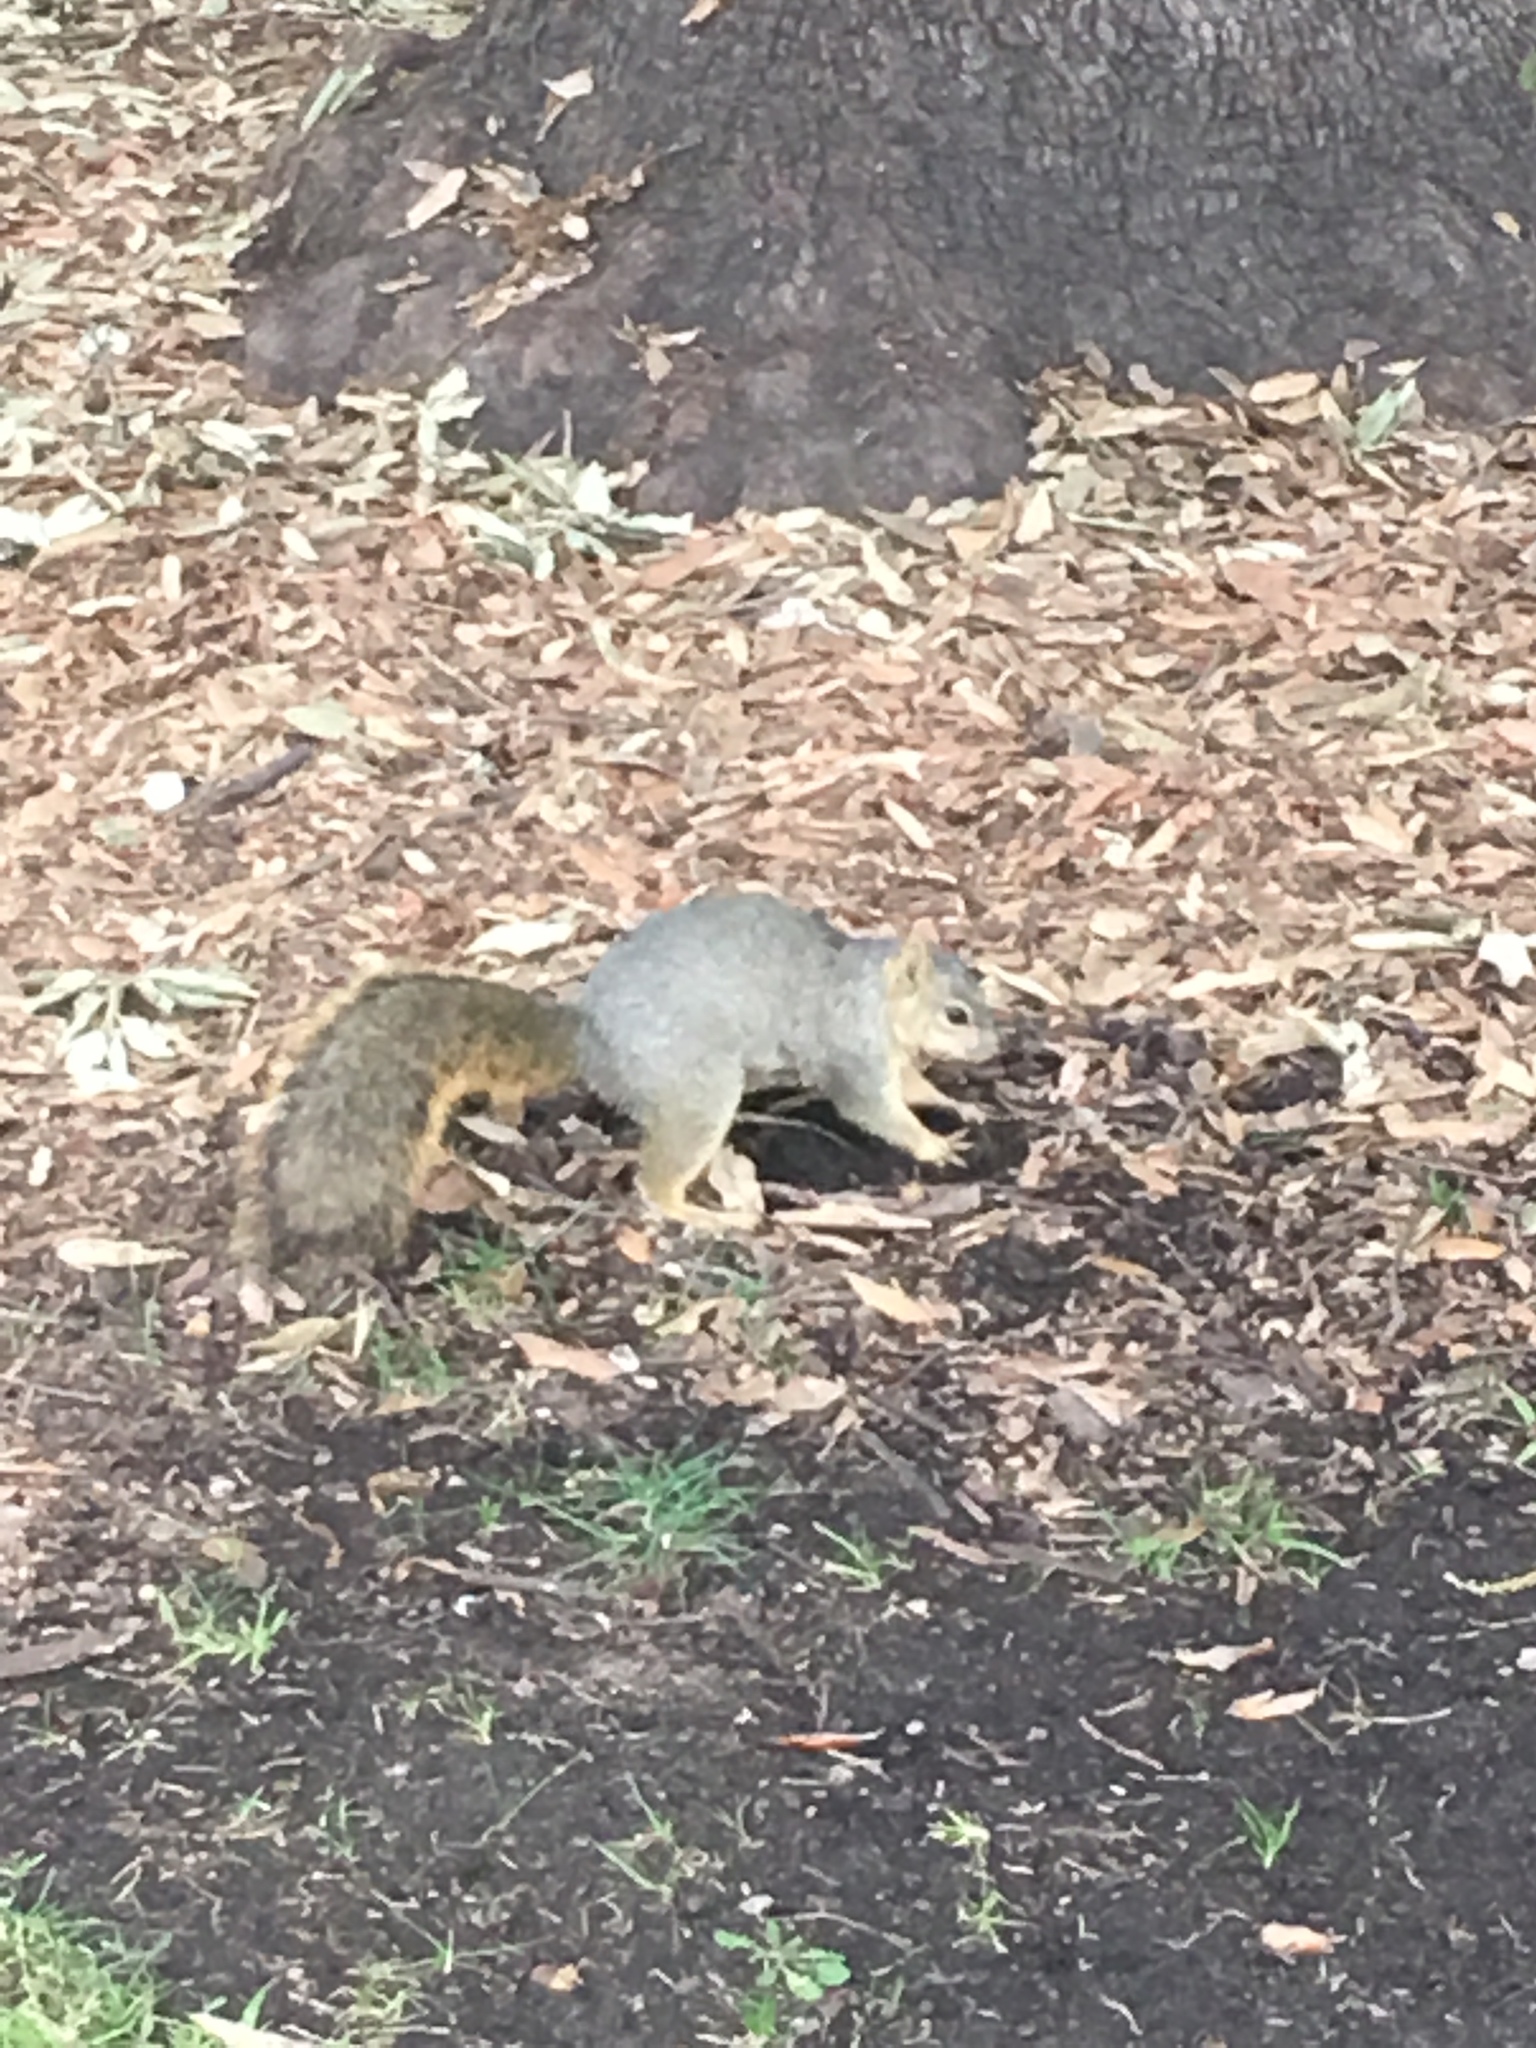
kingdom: Animalia
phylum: Chordata
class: Mammalia
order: Rodentia
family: Sciuridae
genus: Sciurus
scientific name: Sciurus niger
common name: Fox squirrel
